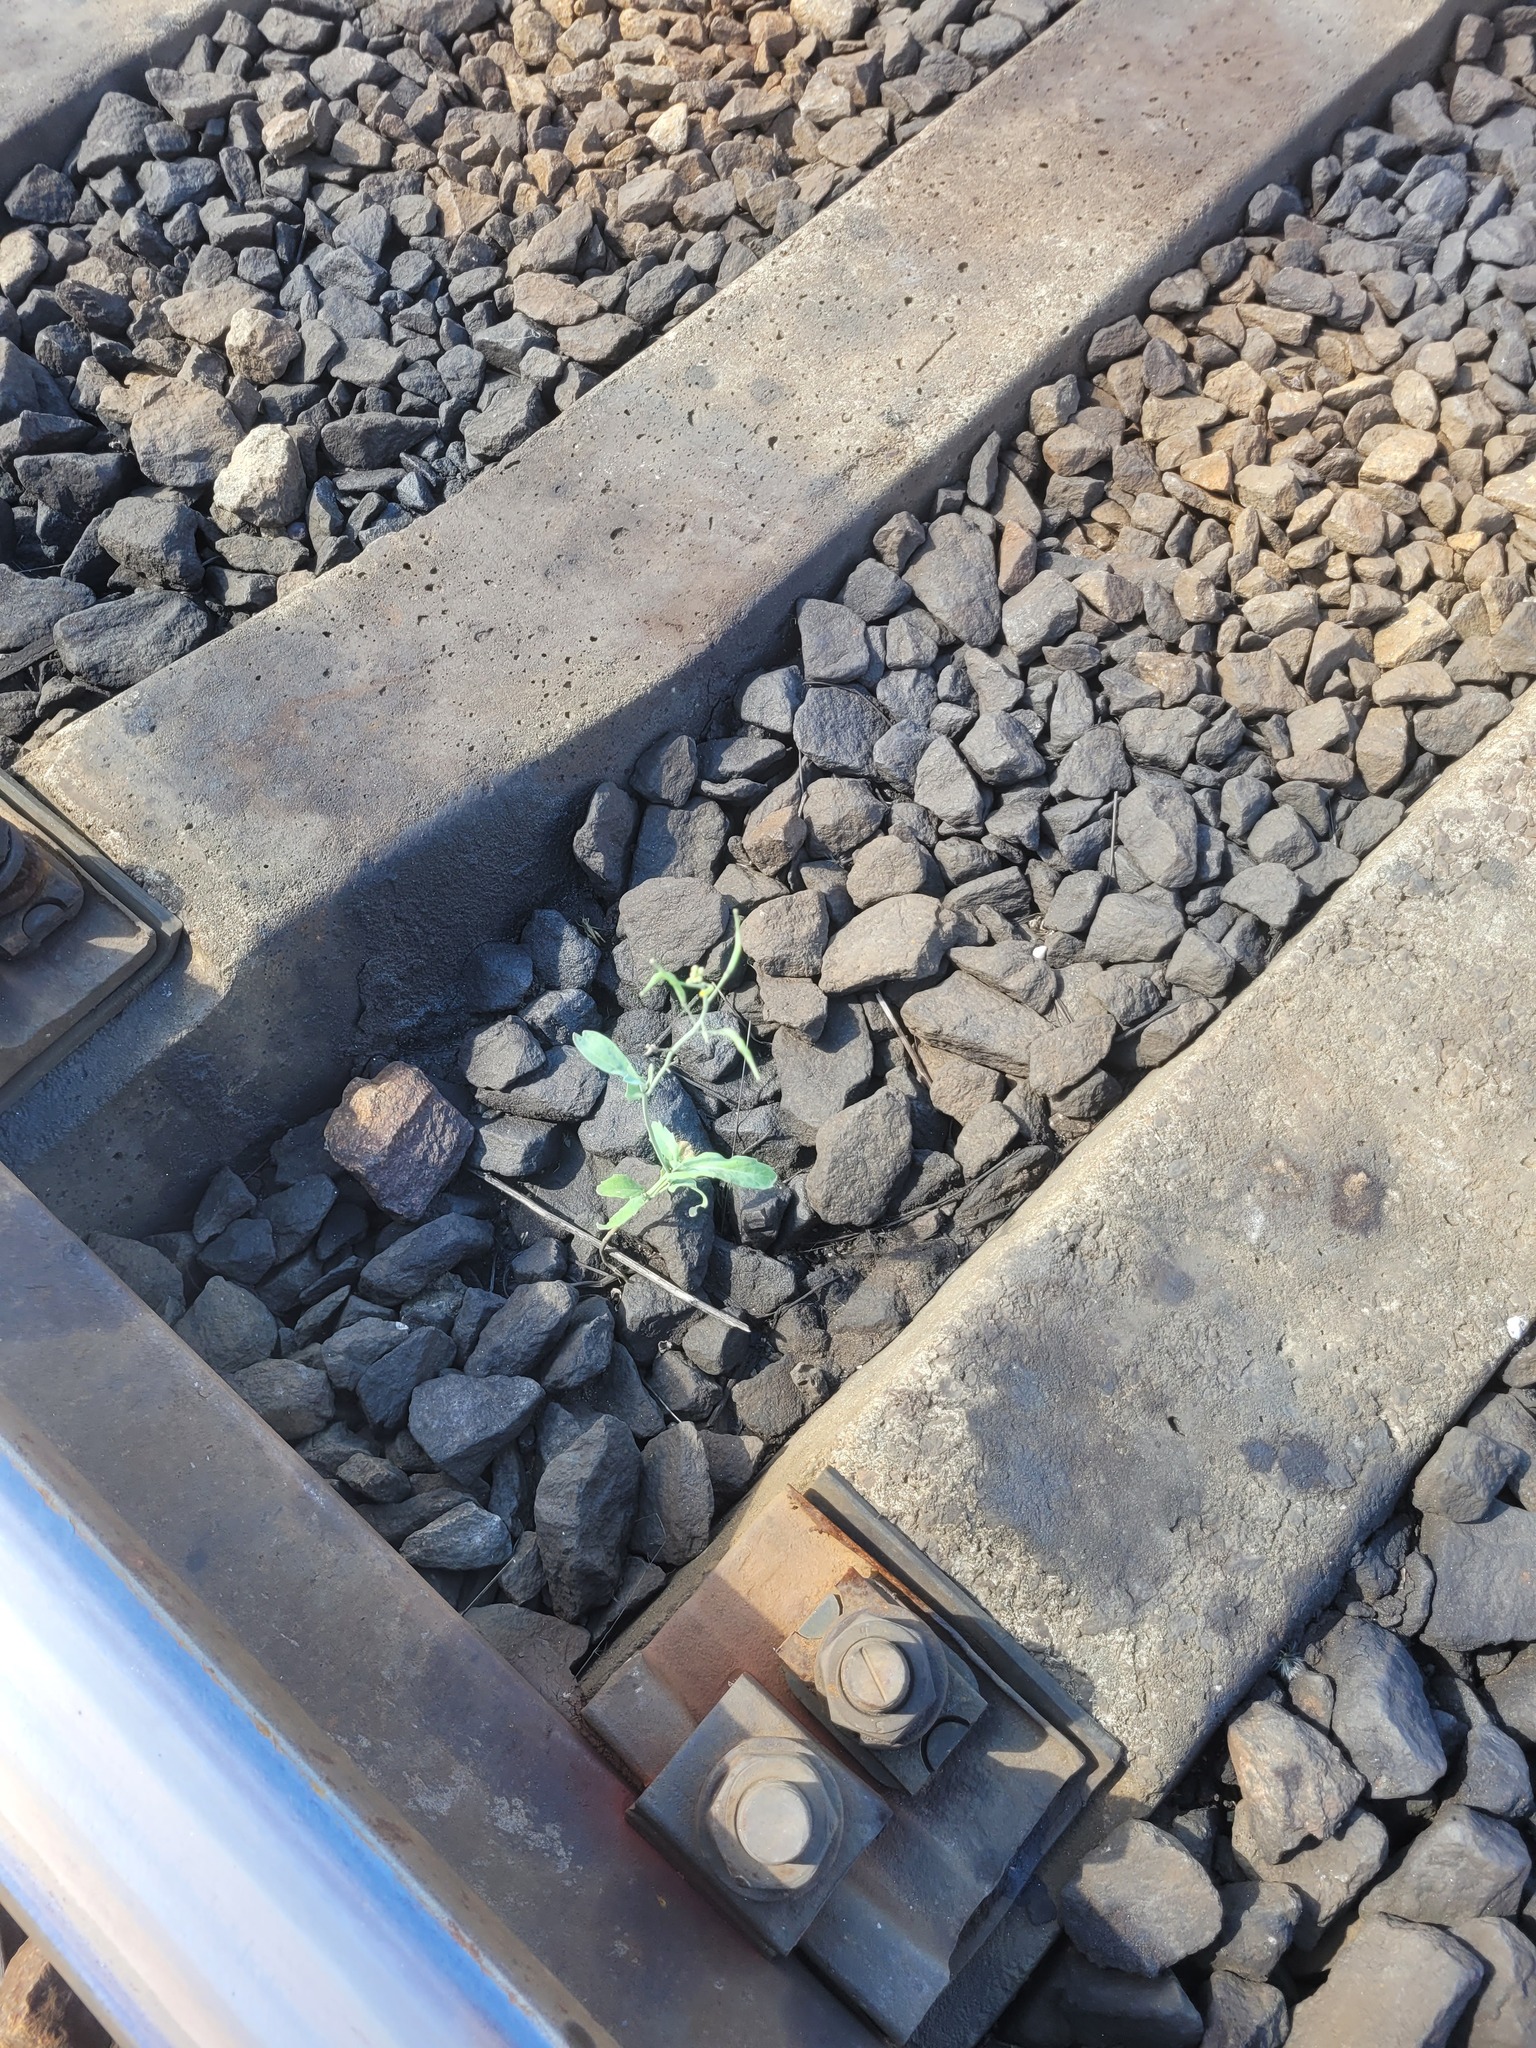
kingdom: Plantae
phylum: Tracheophyta
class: Magnoliopsida
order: Brassicales
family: Brassicaceae
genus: Brassica
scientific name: Brassica napus
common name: Rape
